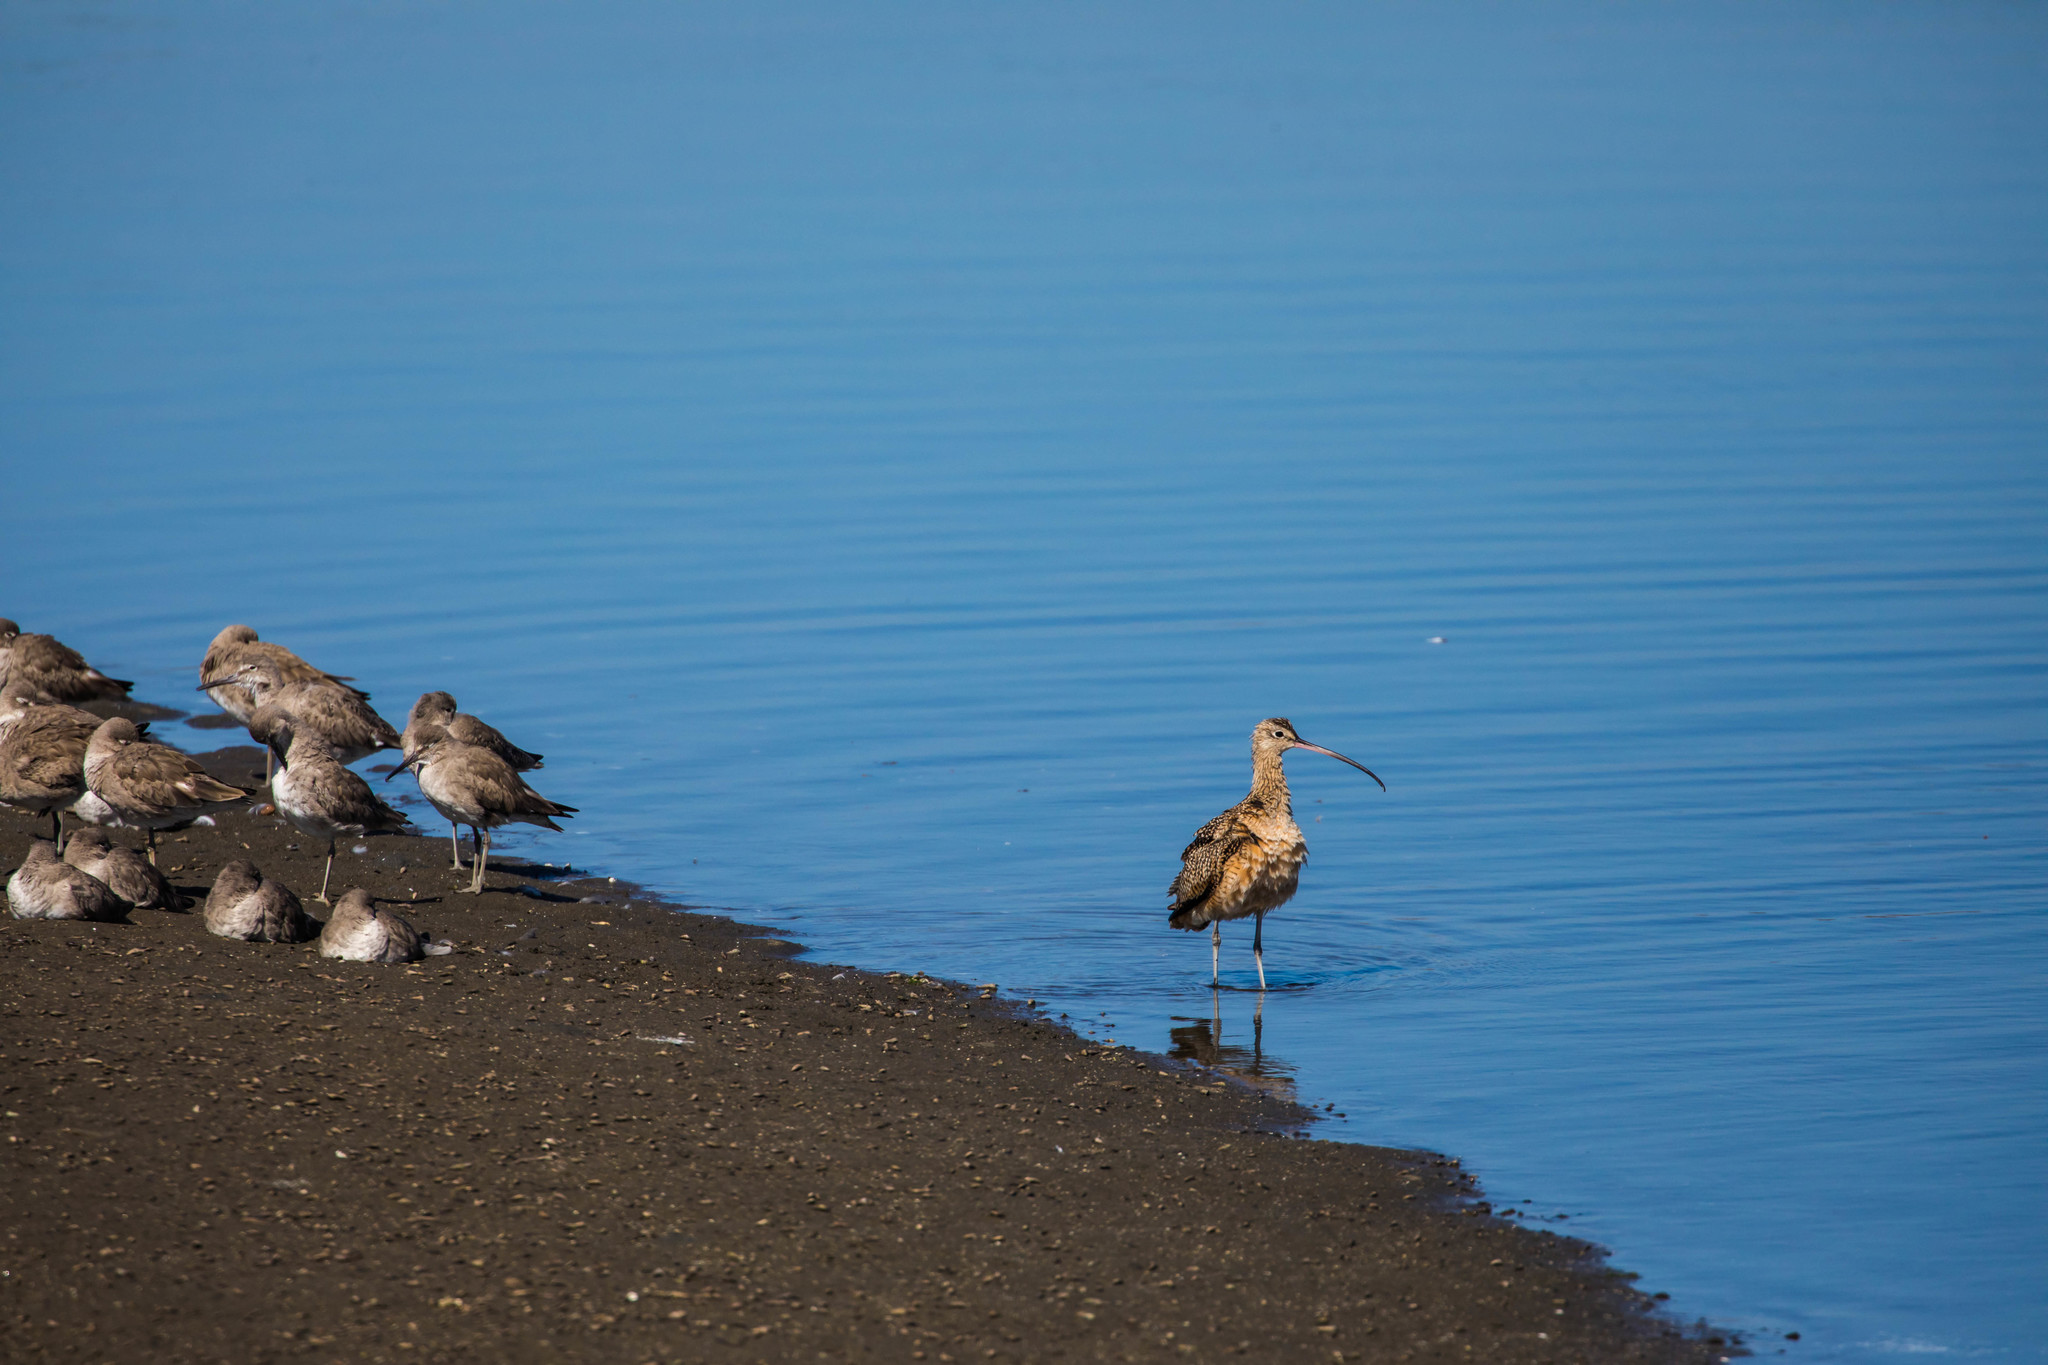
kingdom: Animalia
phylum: Chordata
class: Aves
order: Charadriiformes
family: Scolopacidae
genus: Numenius
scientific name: Numenius americanus
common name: Long-billed curlew
